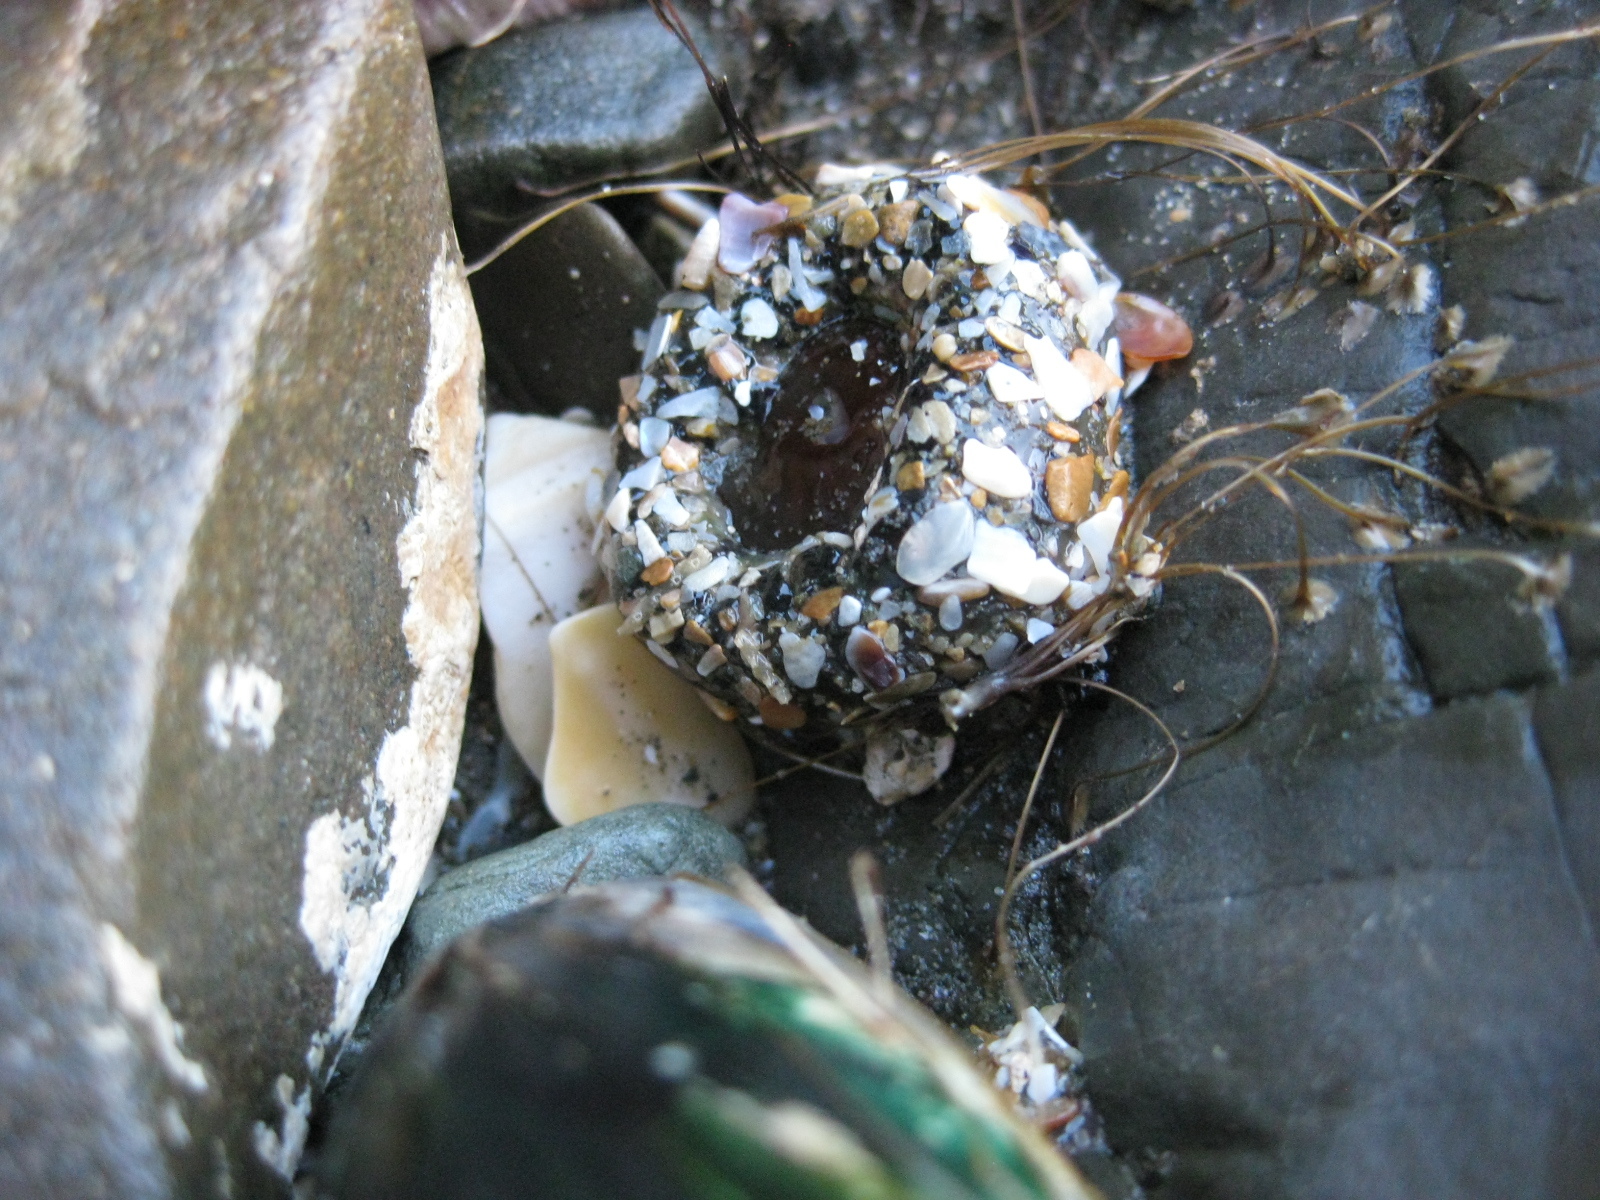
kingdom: Animalia
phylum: Cnidaria
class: Anthozoa
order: Actiniaria
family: Actiniidae
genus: Oulactis
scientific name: Oulactis muscosa
